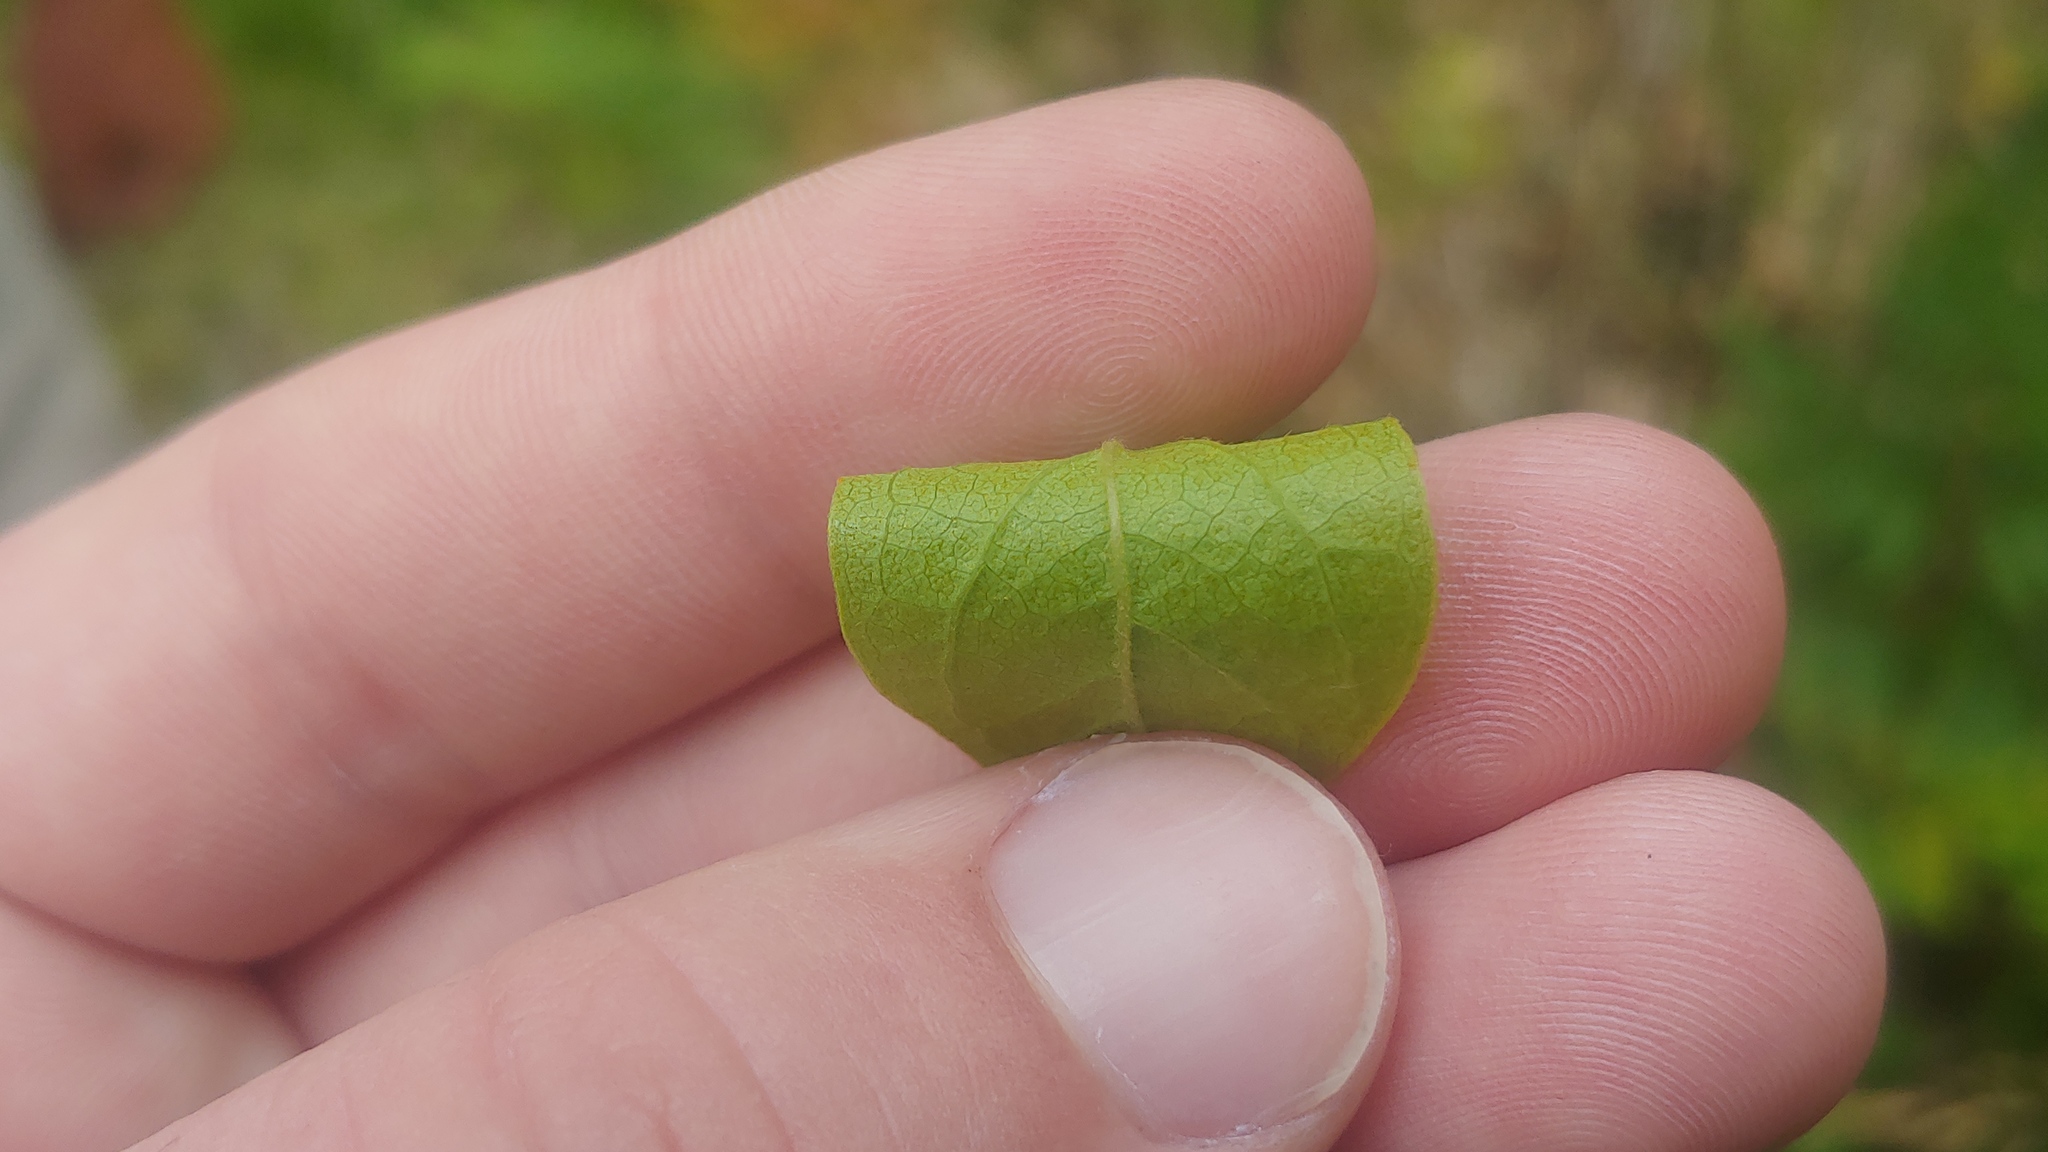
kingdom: Plantae
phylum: Tracheophyta
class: Magnoliopsida
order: Ericales
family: Ericaceae
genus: Gaylussacia
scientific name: Gaylussacia baccata
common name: Black huckleberry
